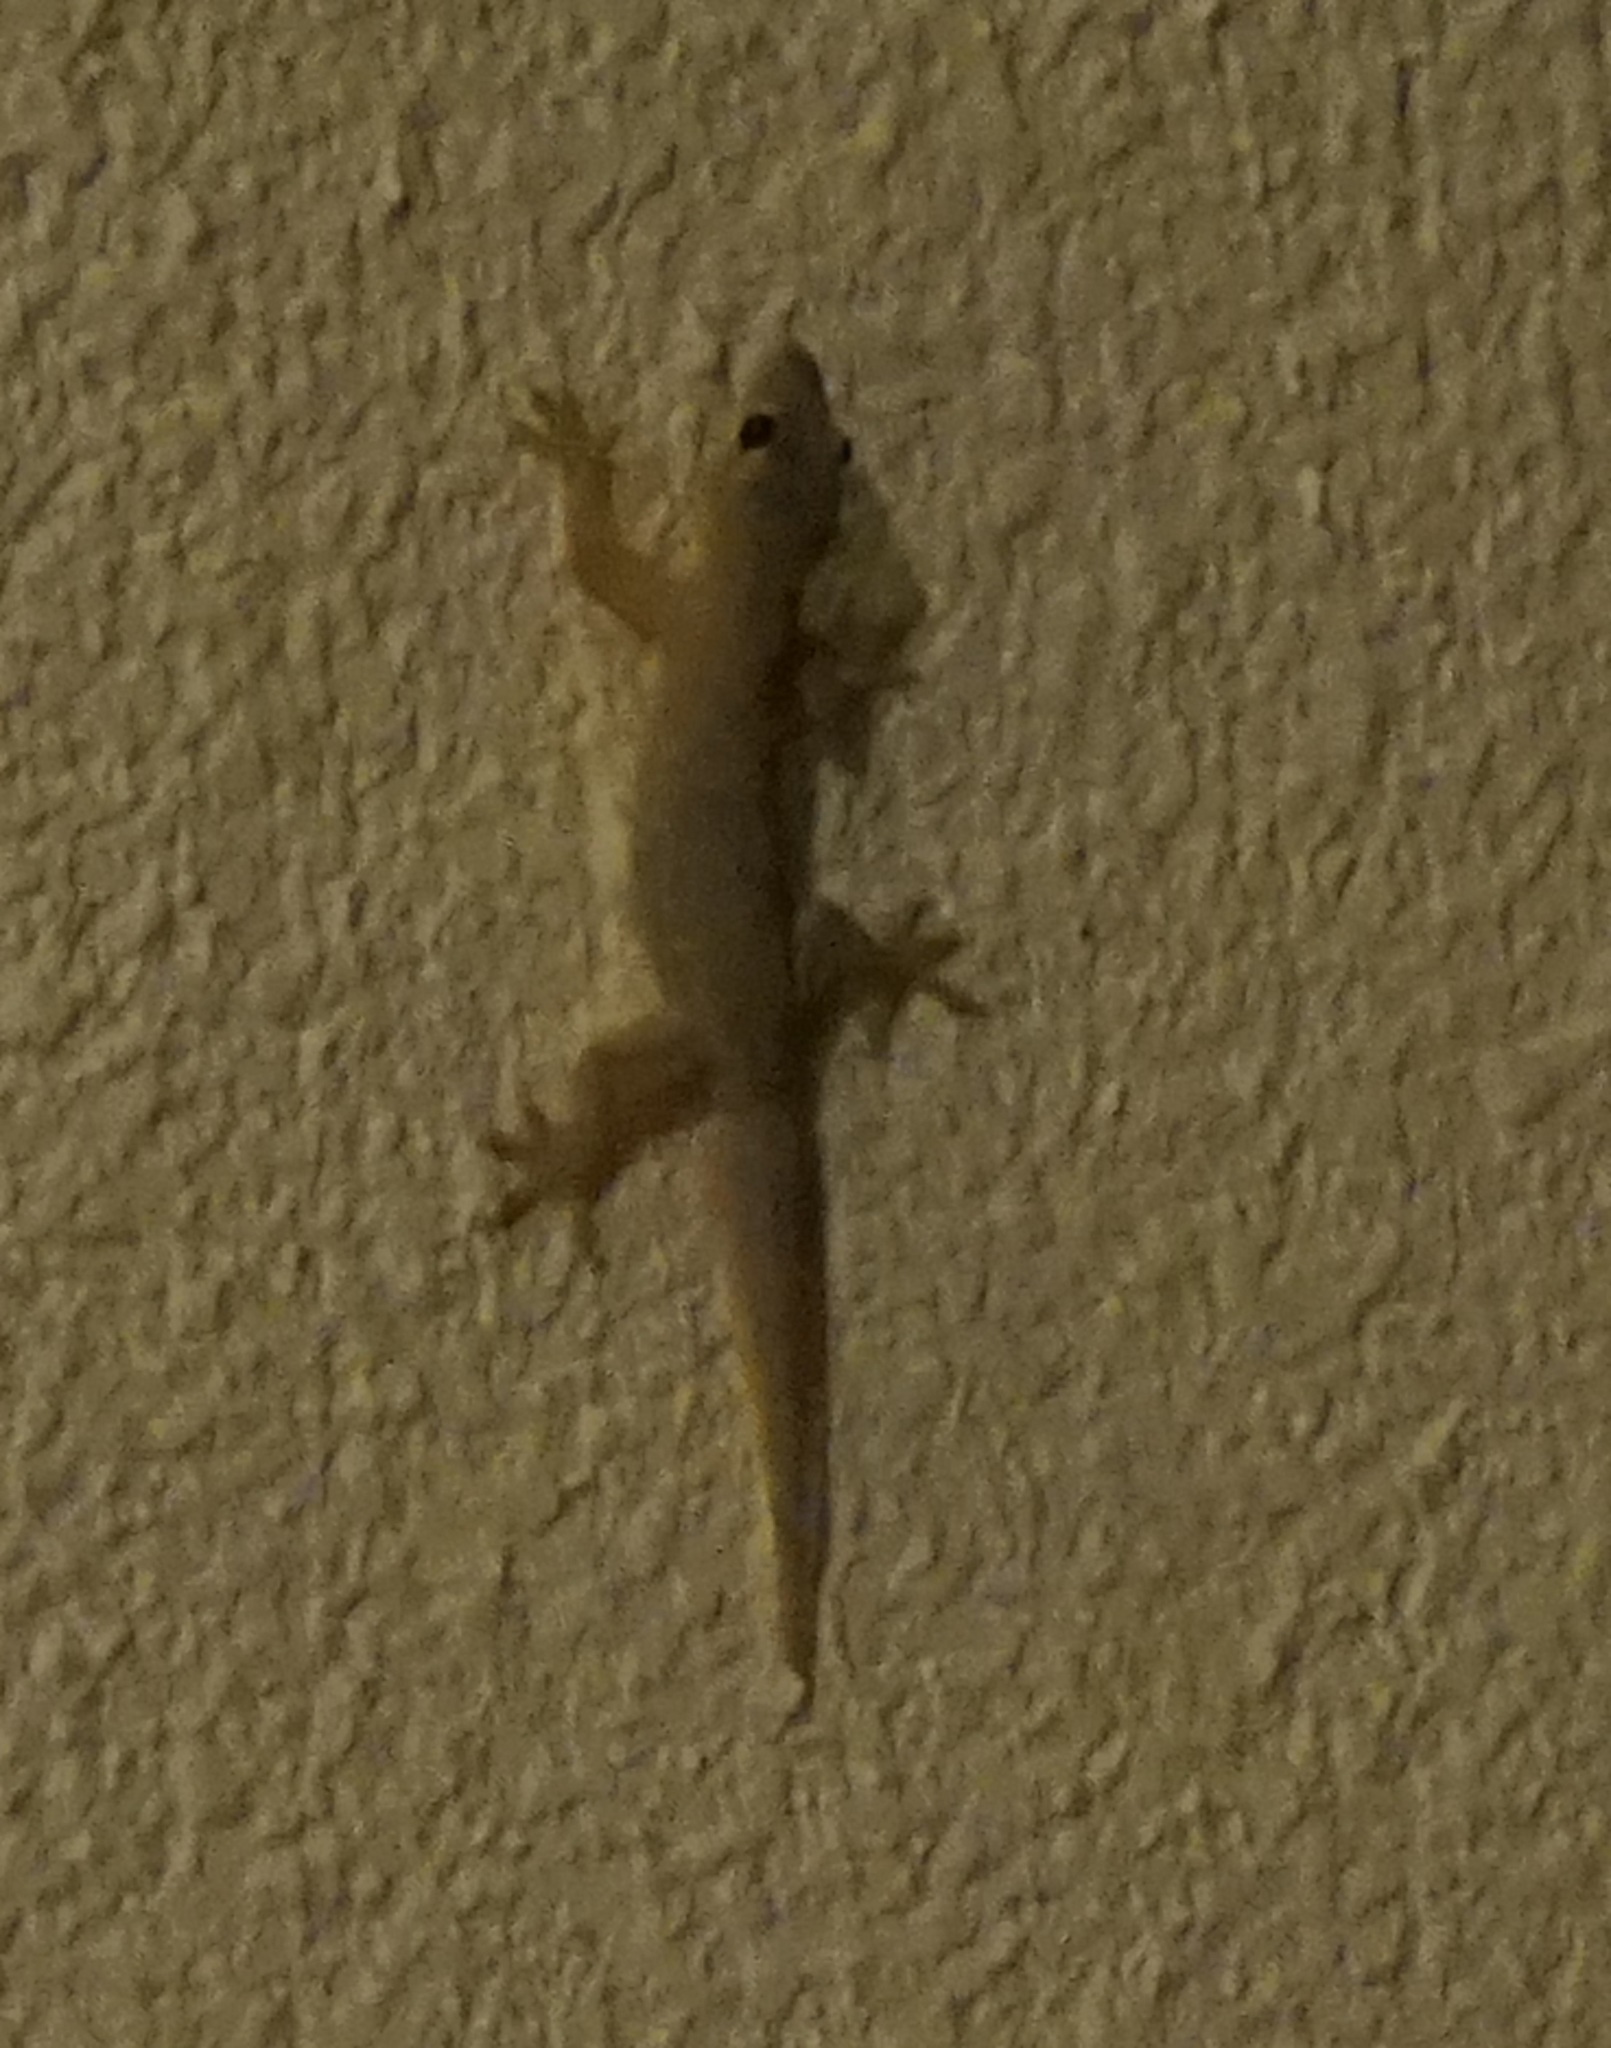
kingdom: Animalia
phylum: Chordata
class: Squamata
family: Gekkonidae
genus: Hemidactylus
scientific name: Hemidactylus platyurus
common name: Flat-tailed house gecko
